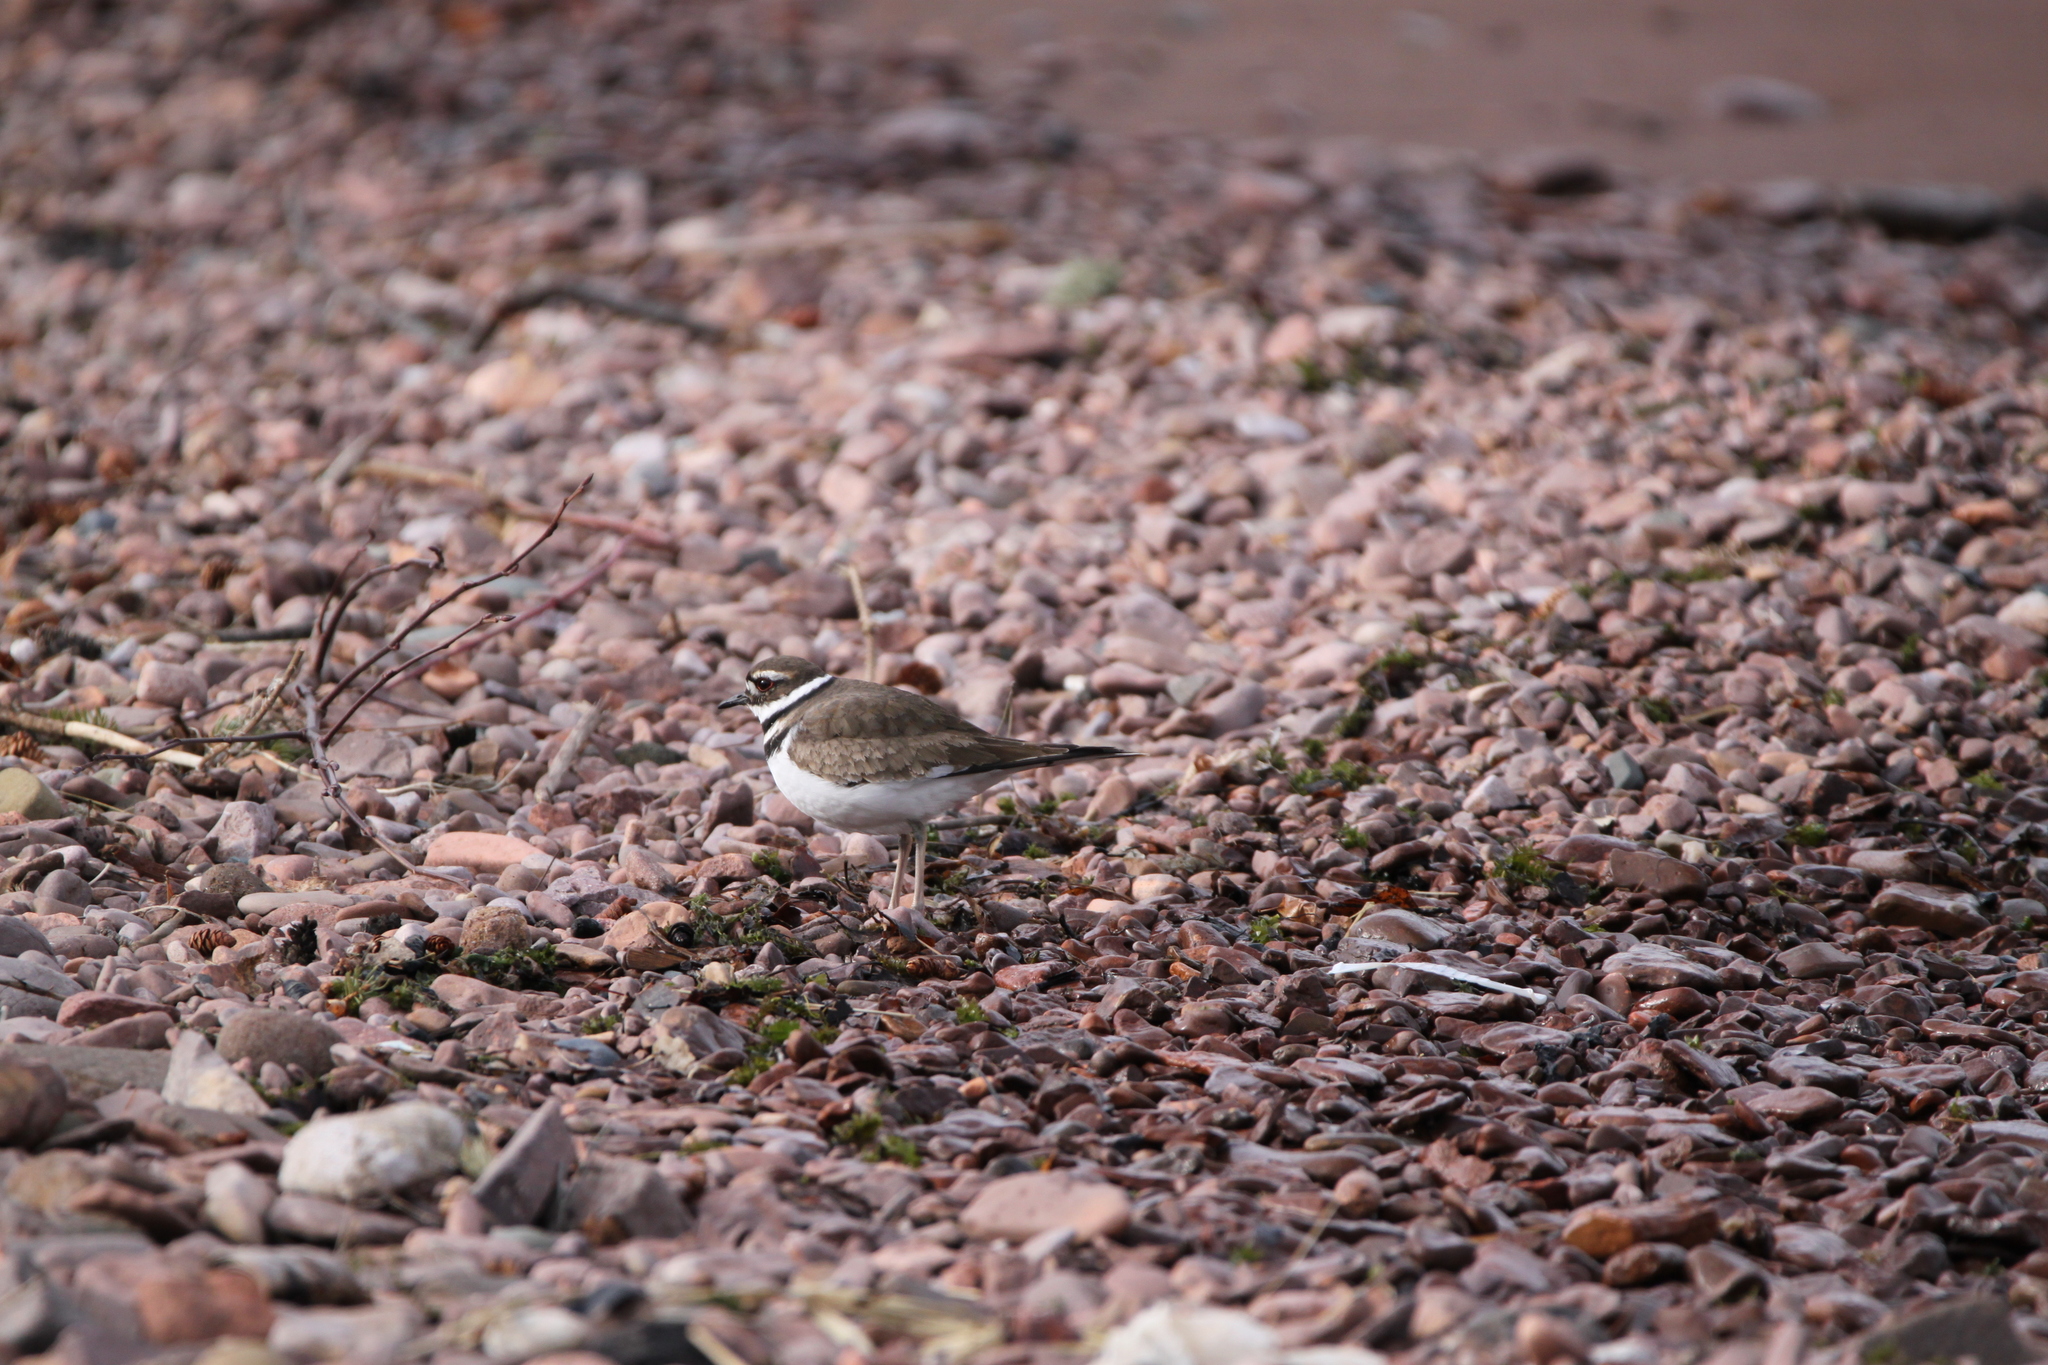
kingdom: Animalia
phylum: Chordata
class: Aves
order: Charadriiformes
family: Charadriidae
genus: Charadrius
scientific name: Charadrius vociferus
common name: Killdeer
